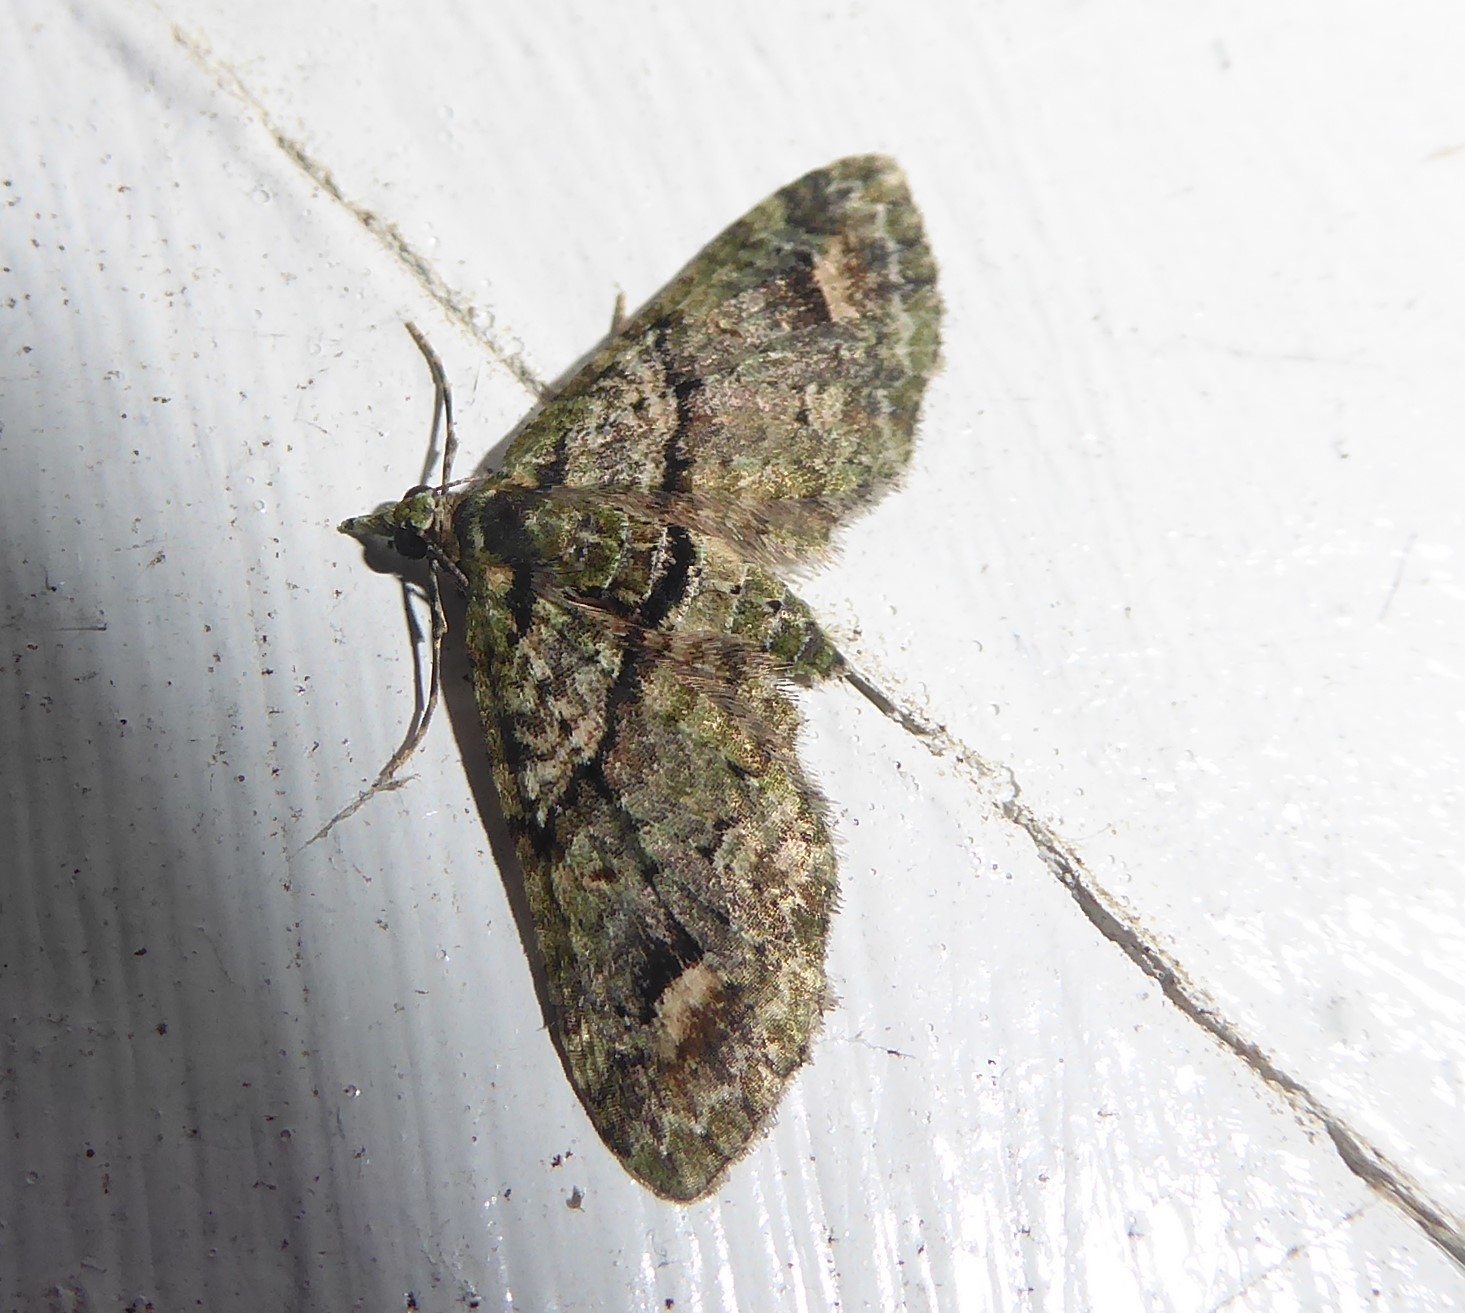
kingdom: Animalia
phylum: Arthropoda
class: Insecta
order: Lepidoptera
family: Geometridae
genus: Idaea
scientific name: Idaea mutanda
